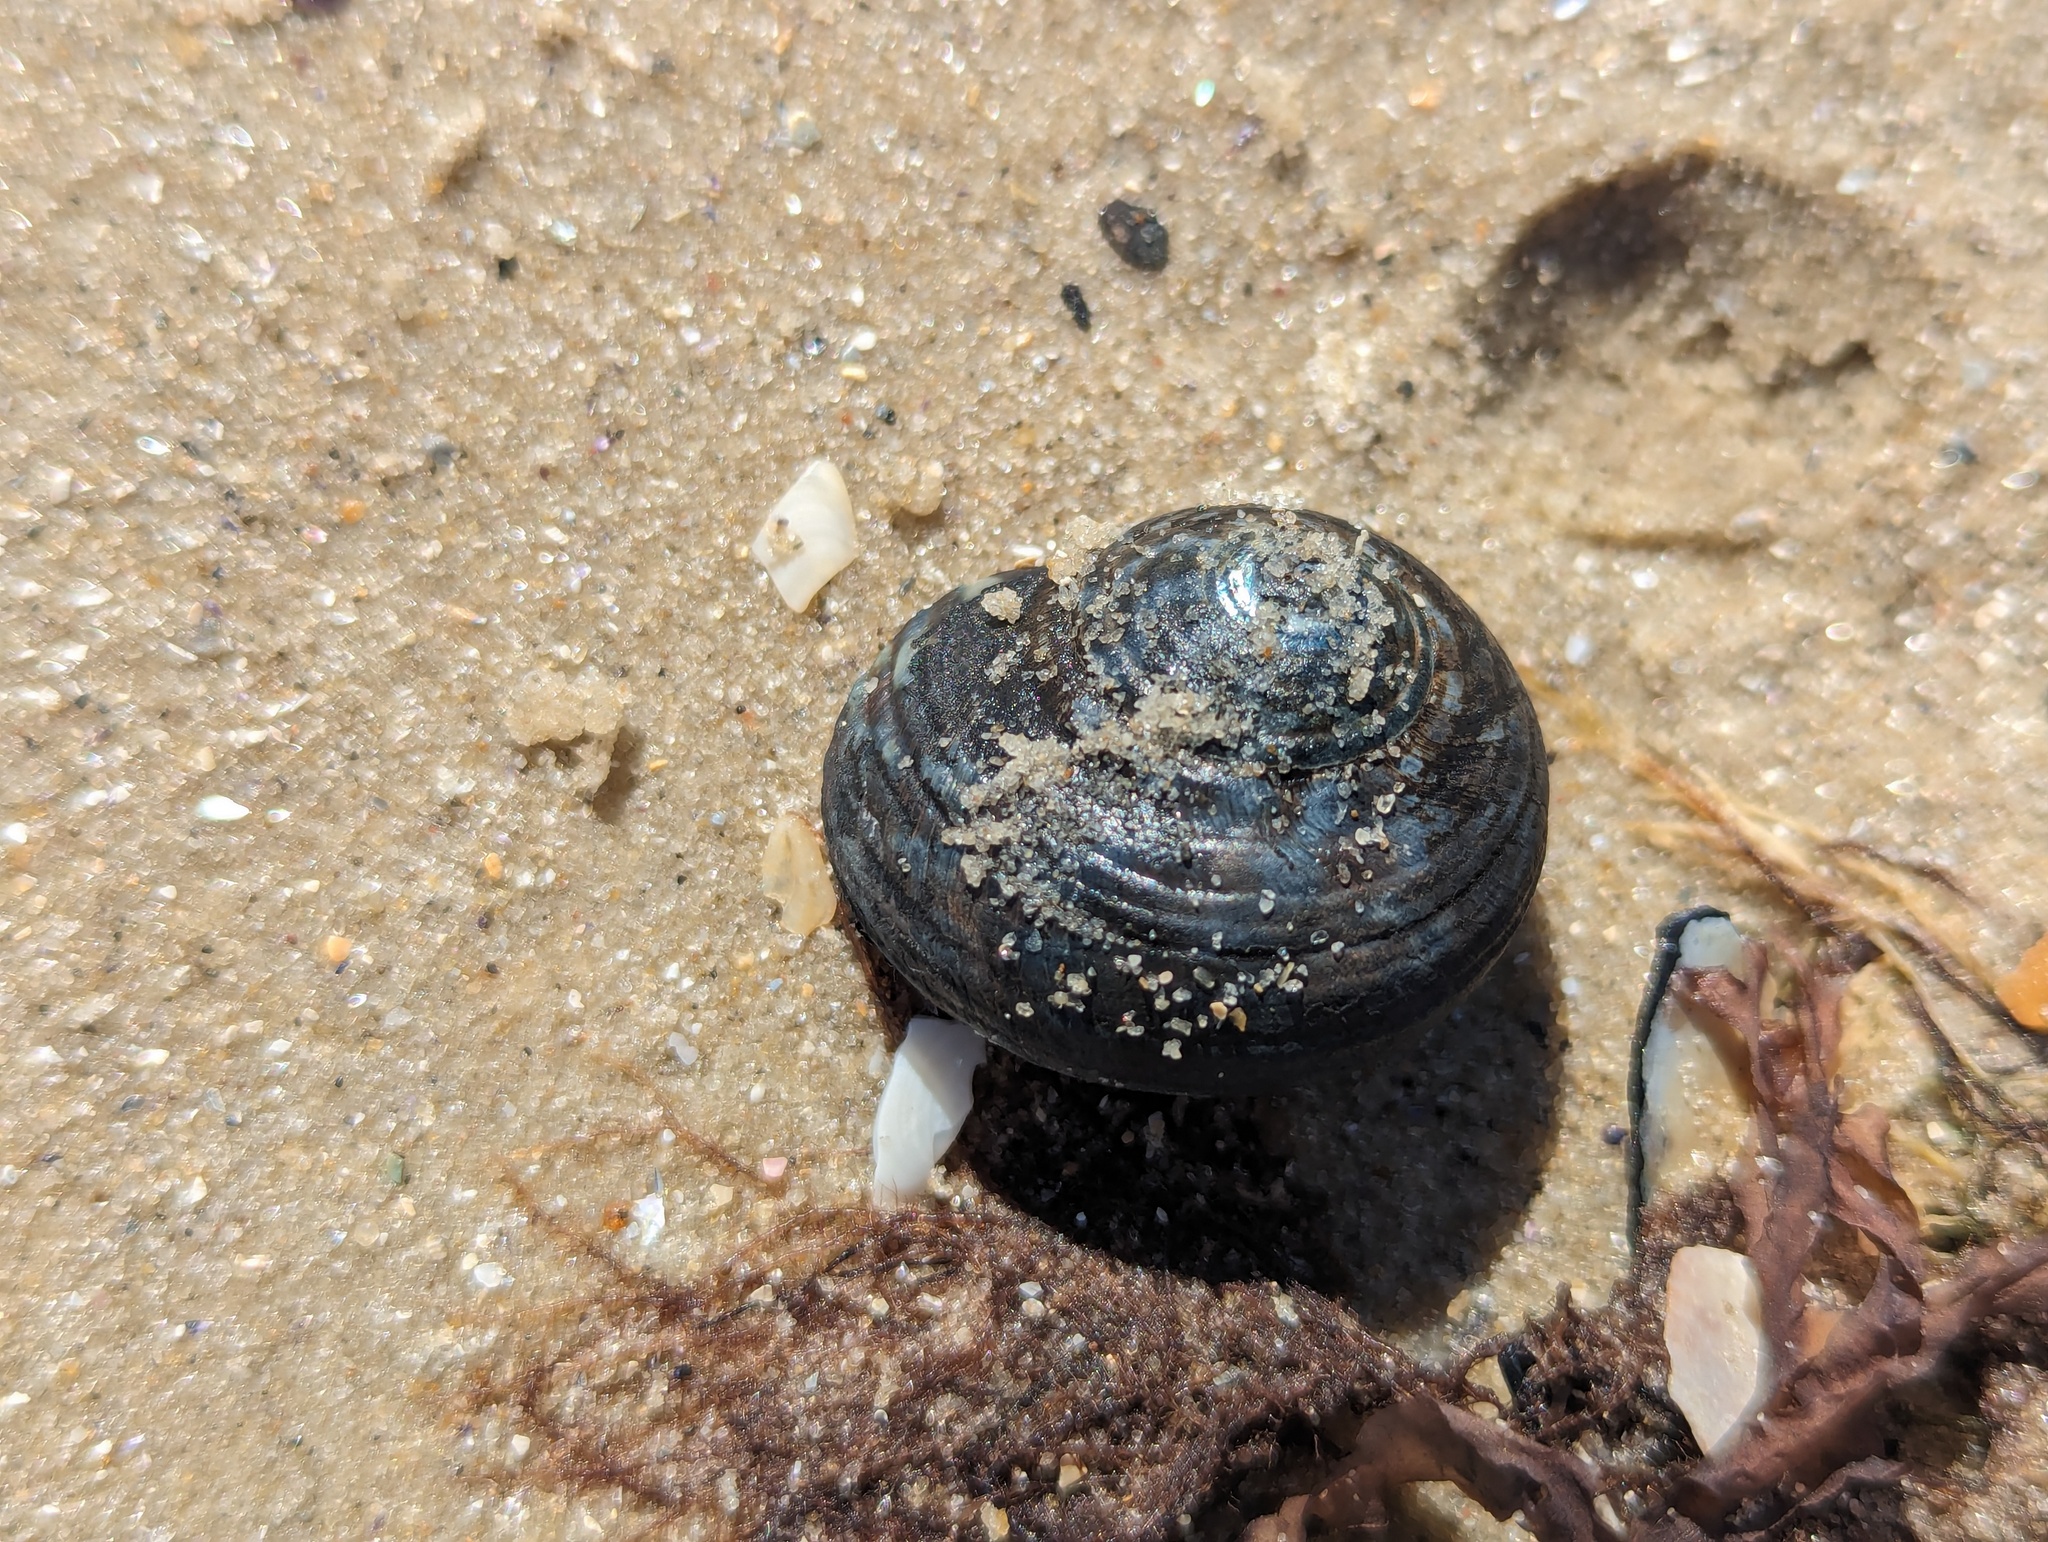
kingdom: Animalia
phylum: Mollusca
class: Gastropoda
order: Trochida
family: Turbinidae
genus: Lunella
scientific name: Lunella undulata
